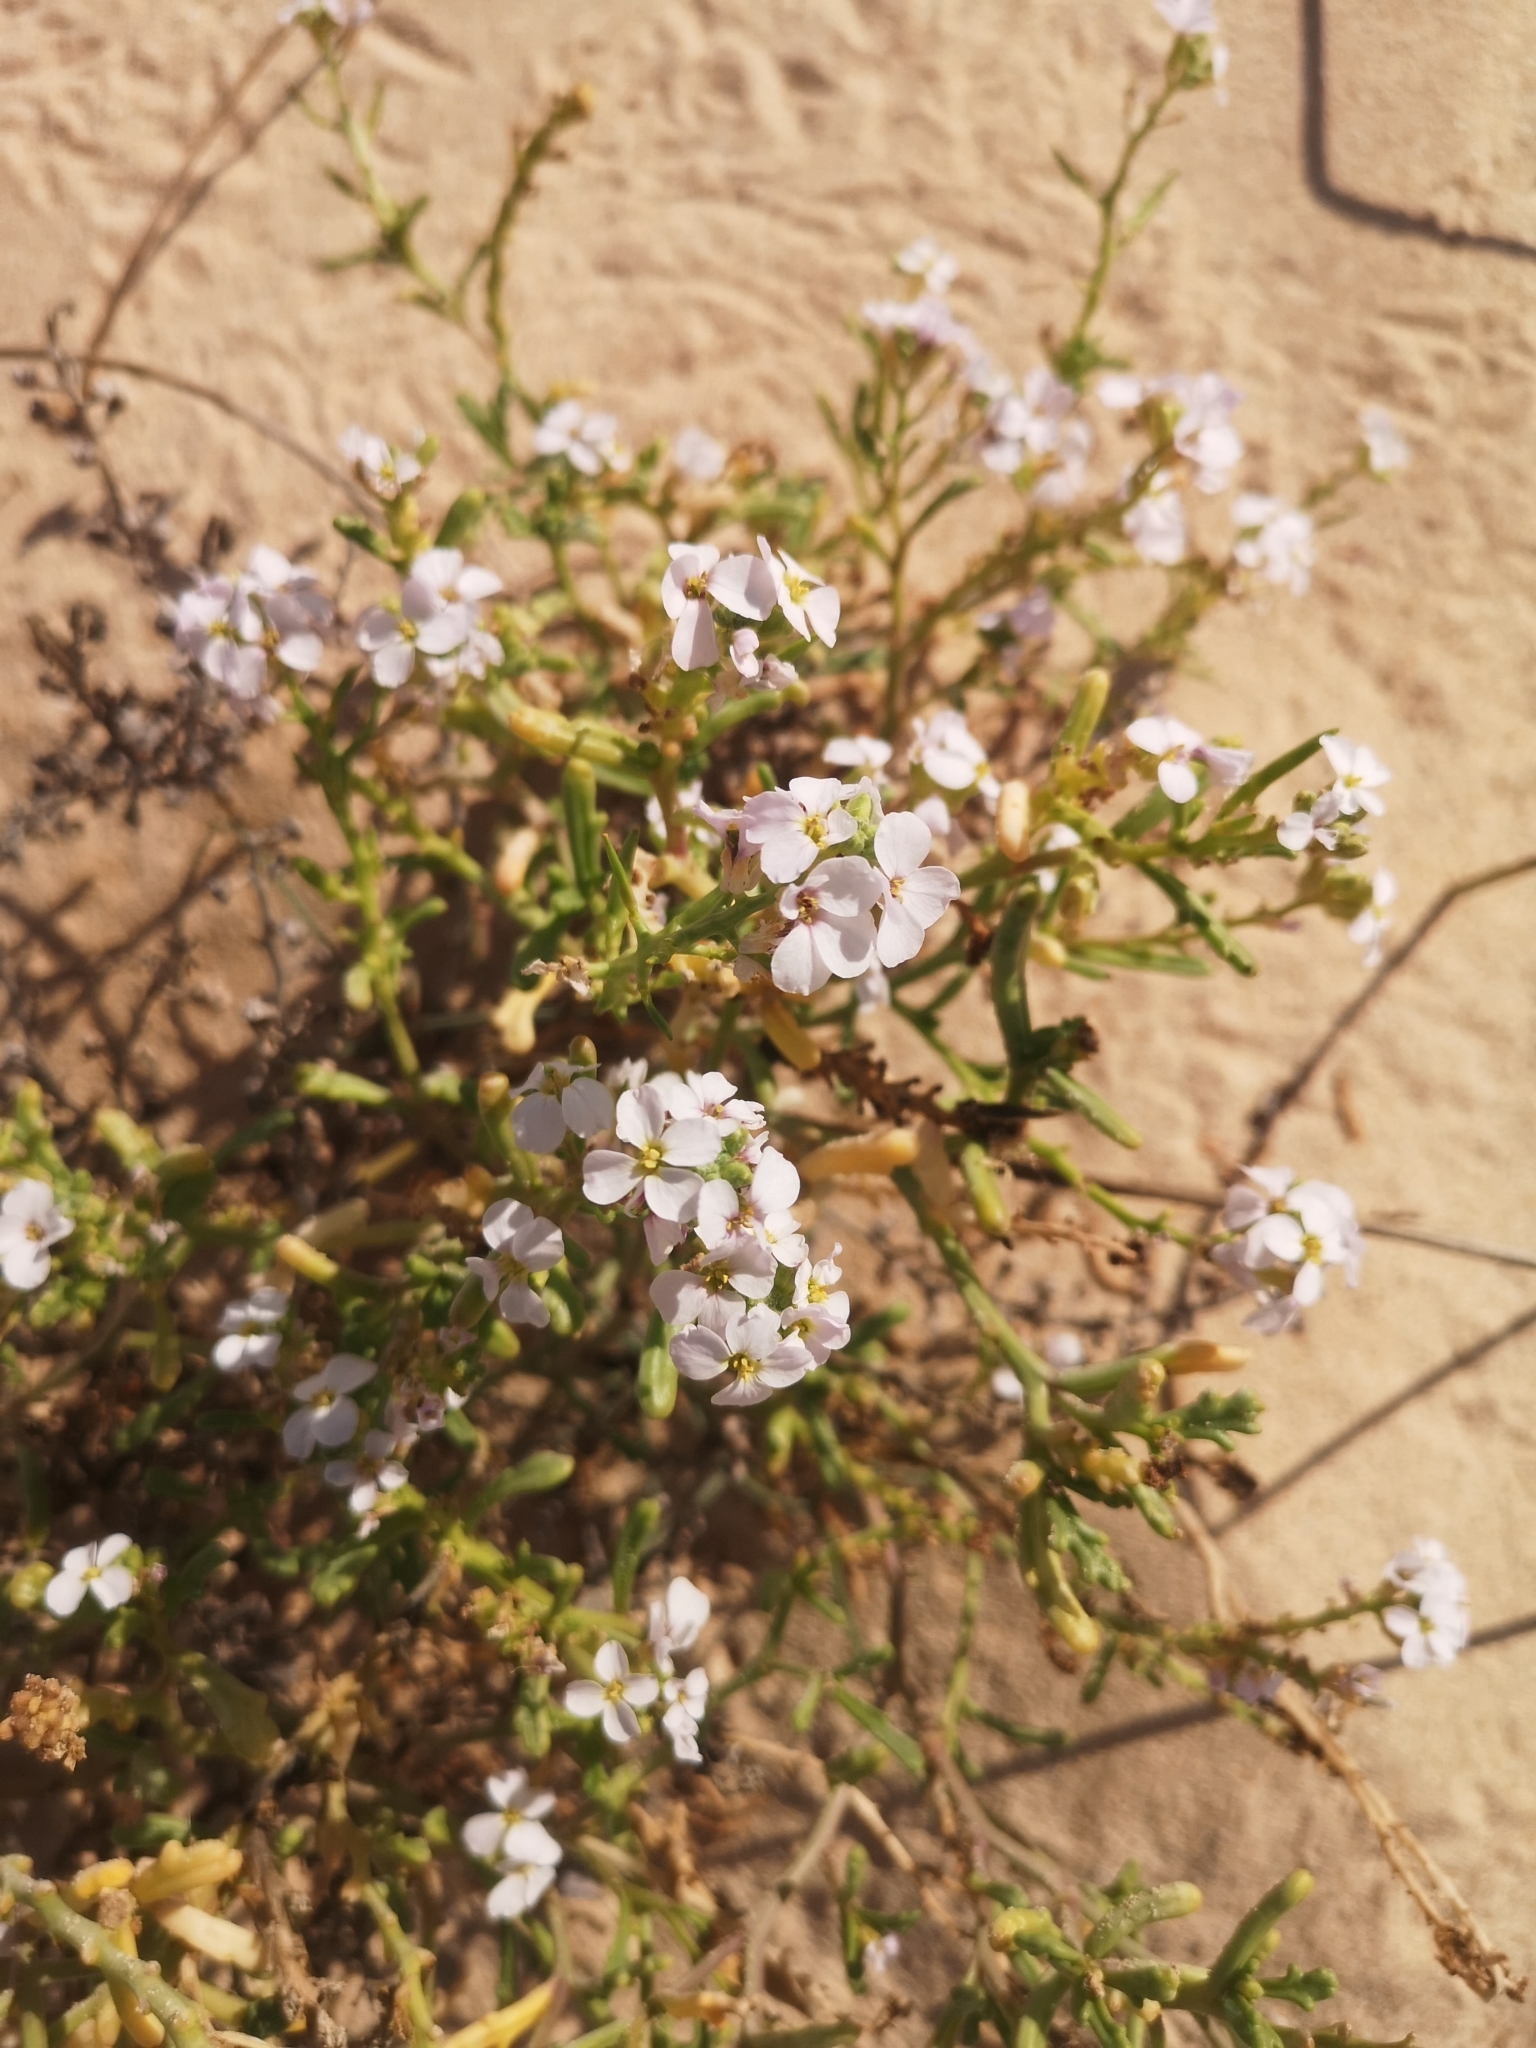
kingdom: Plantae
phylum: Tracheophyta
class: Magnoliopsida
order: Brassicales
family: Brassicaceae
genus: Cakile
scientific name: Cakile maritima
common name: Sea rocket
